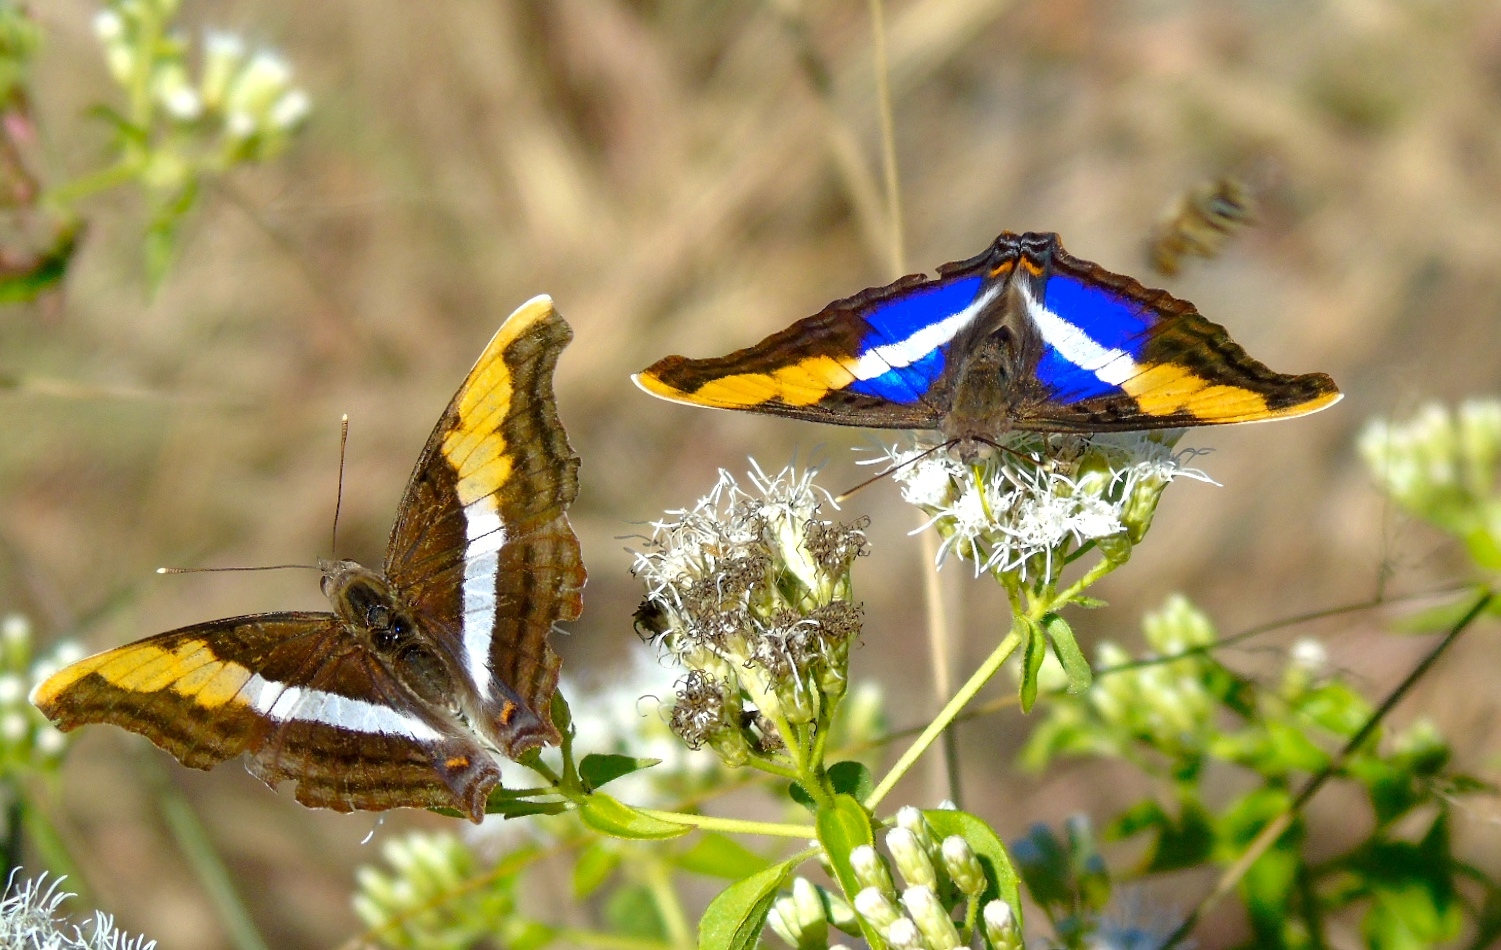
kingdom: Animalia
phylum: Arthropoda
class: Insecta
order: Lepidoptera
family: Nymphalidae
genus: Doxocopa
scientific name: Doxocopa laure
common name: Silver emperor
